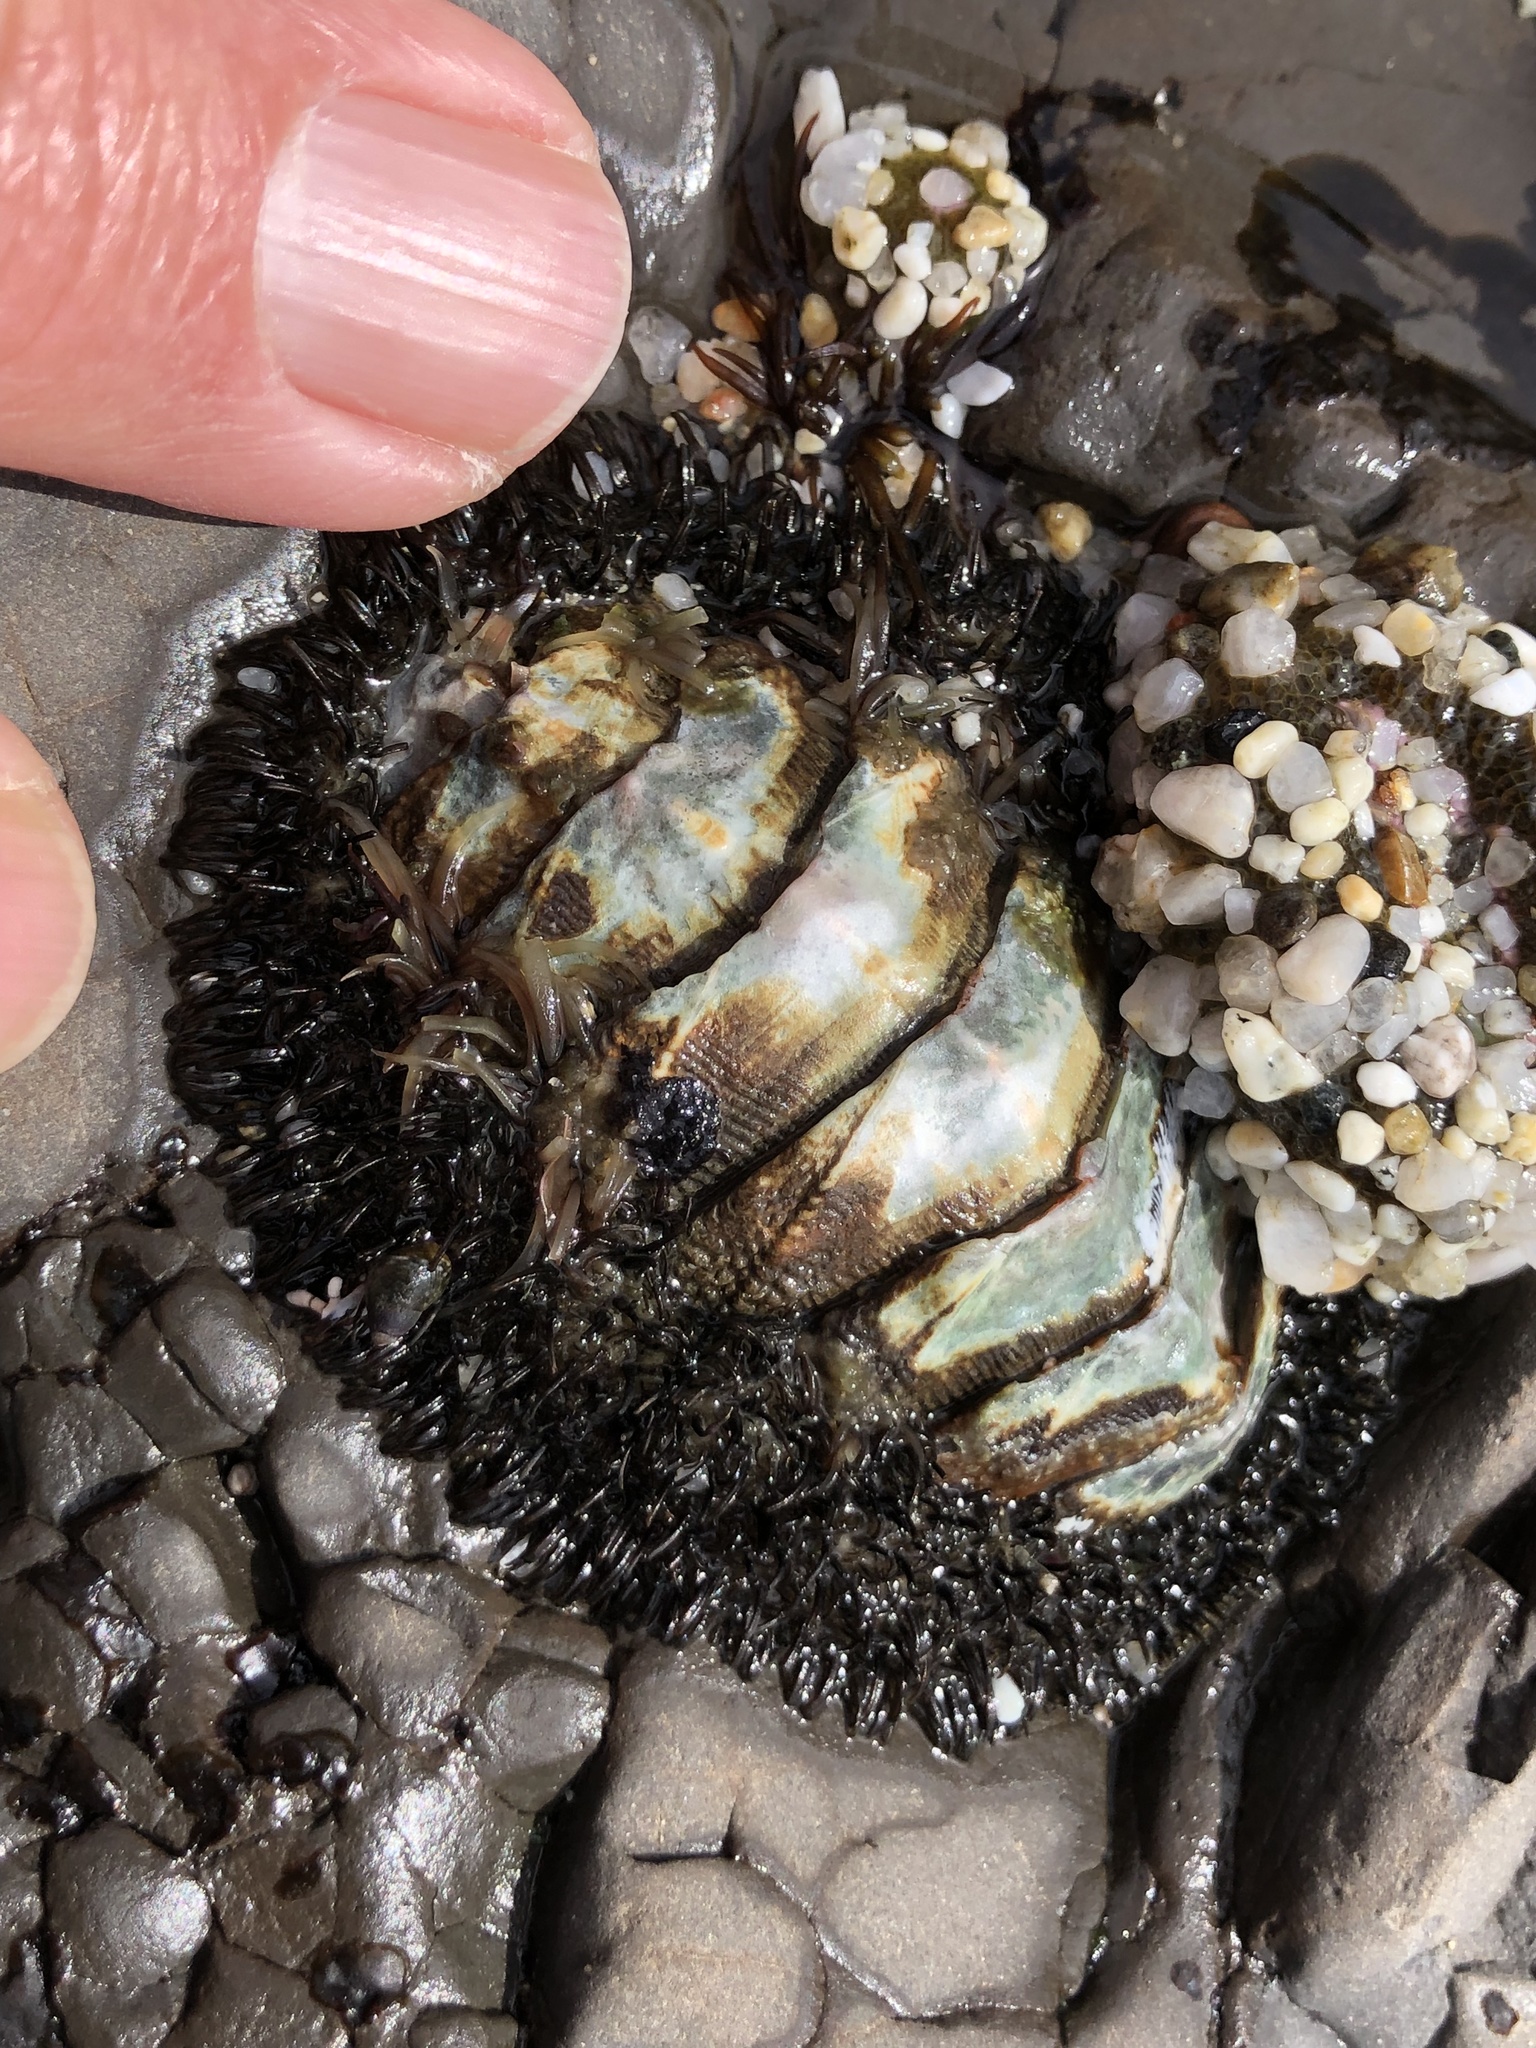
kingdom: Animalia
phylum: Mollusca
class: Polyplacophora
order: Chitonida
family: Mopaliidae
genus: Mopalia
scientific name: Mopalia muscosa
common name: Mossy chiton
